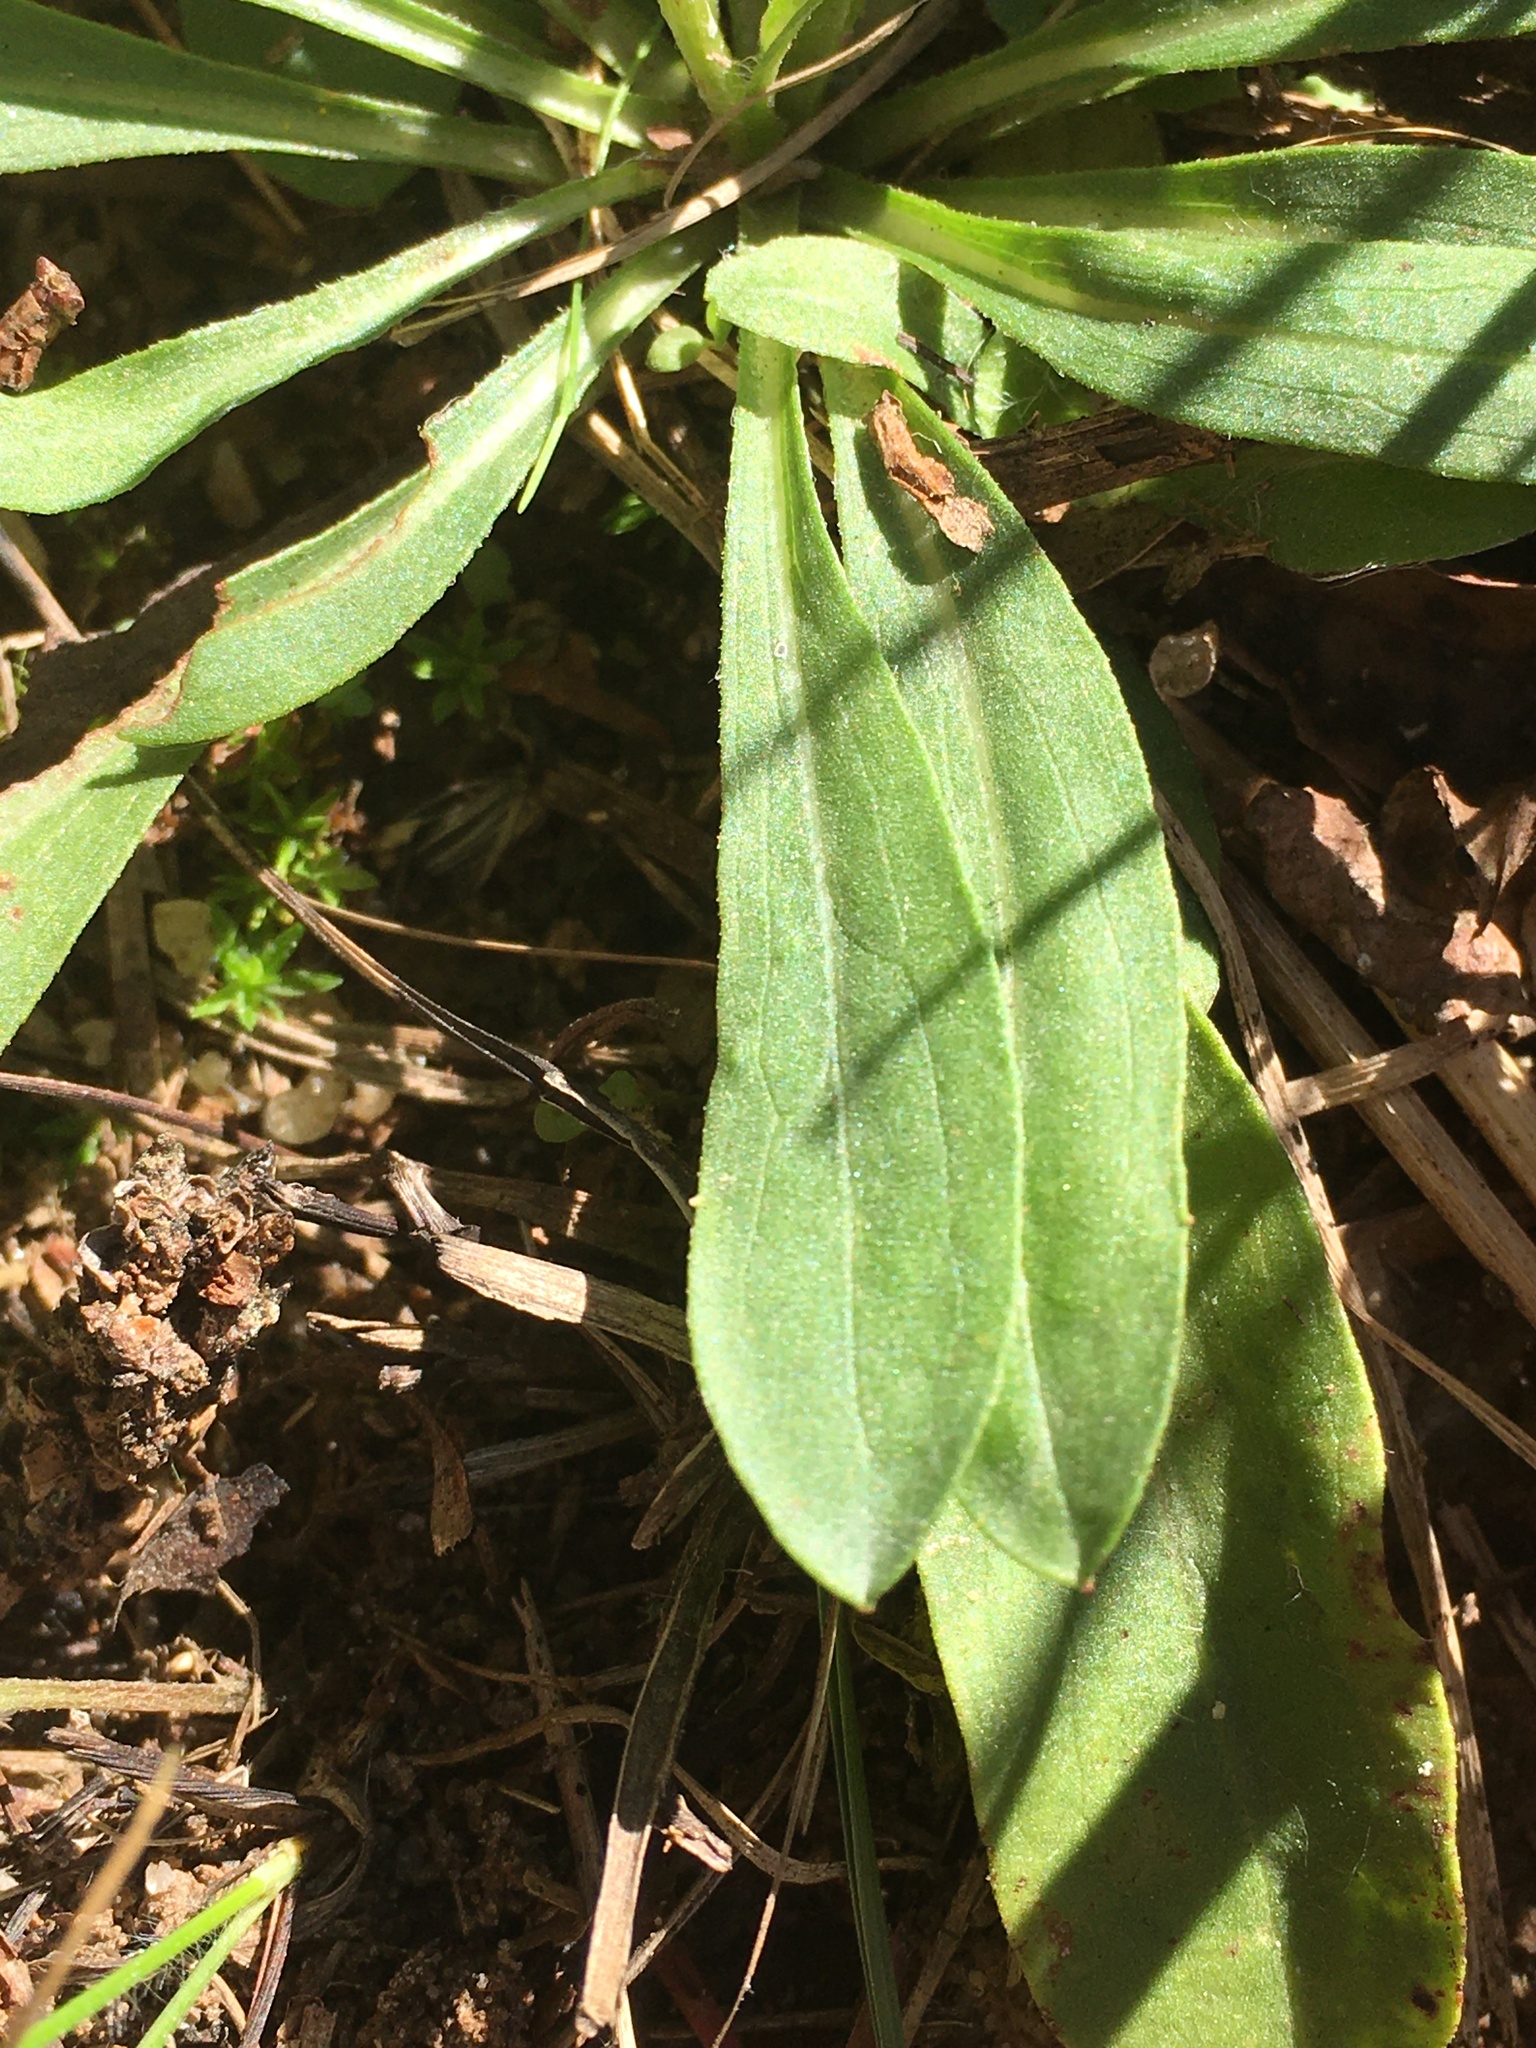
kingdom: Plantae
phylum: Tracheophyta
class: Magnoliopsida
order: Asterales
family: Asteraceae
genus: Chrysopsis
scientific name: Chrysopsis mariana
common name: Maryland golden-aster
